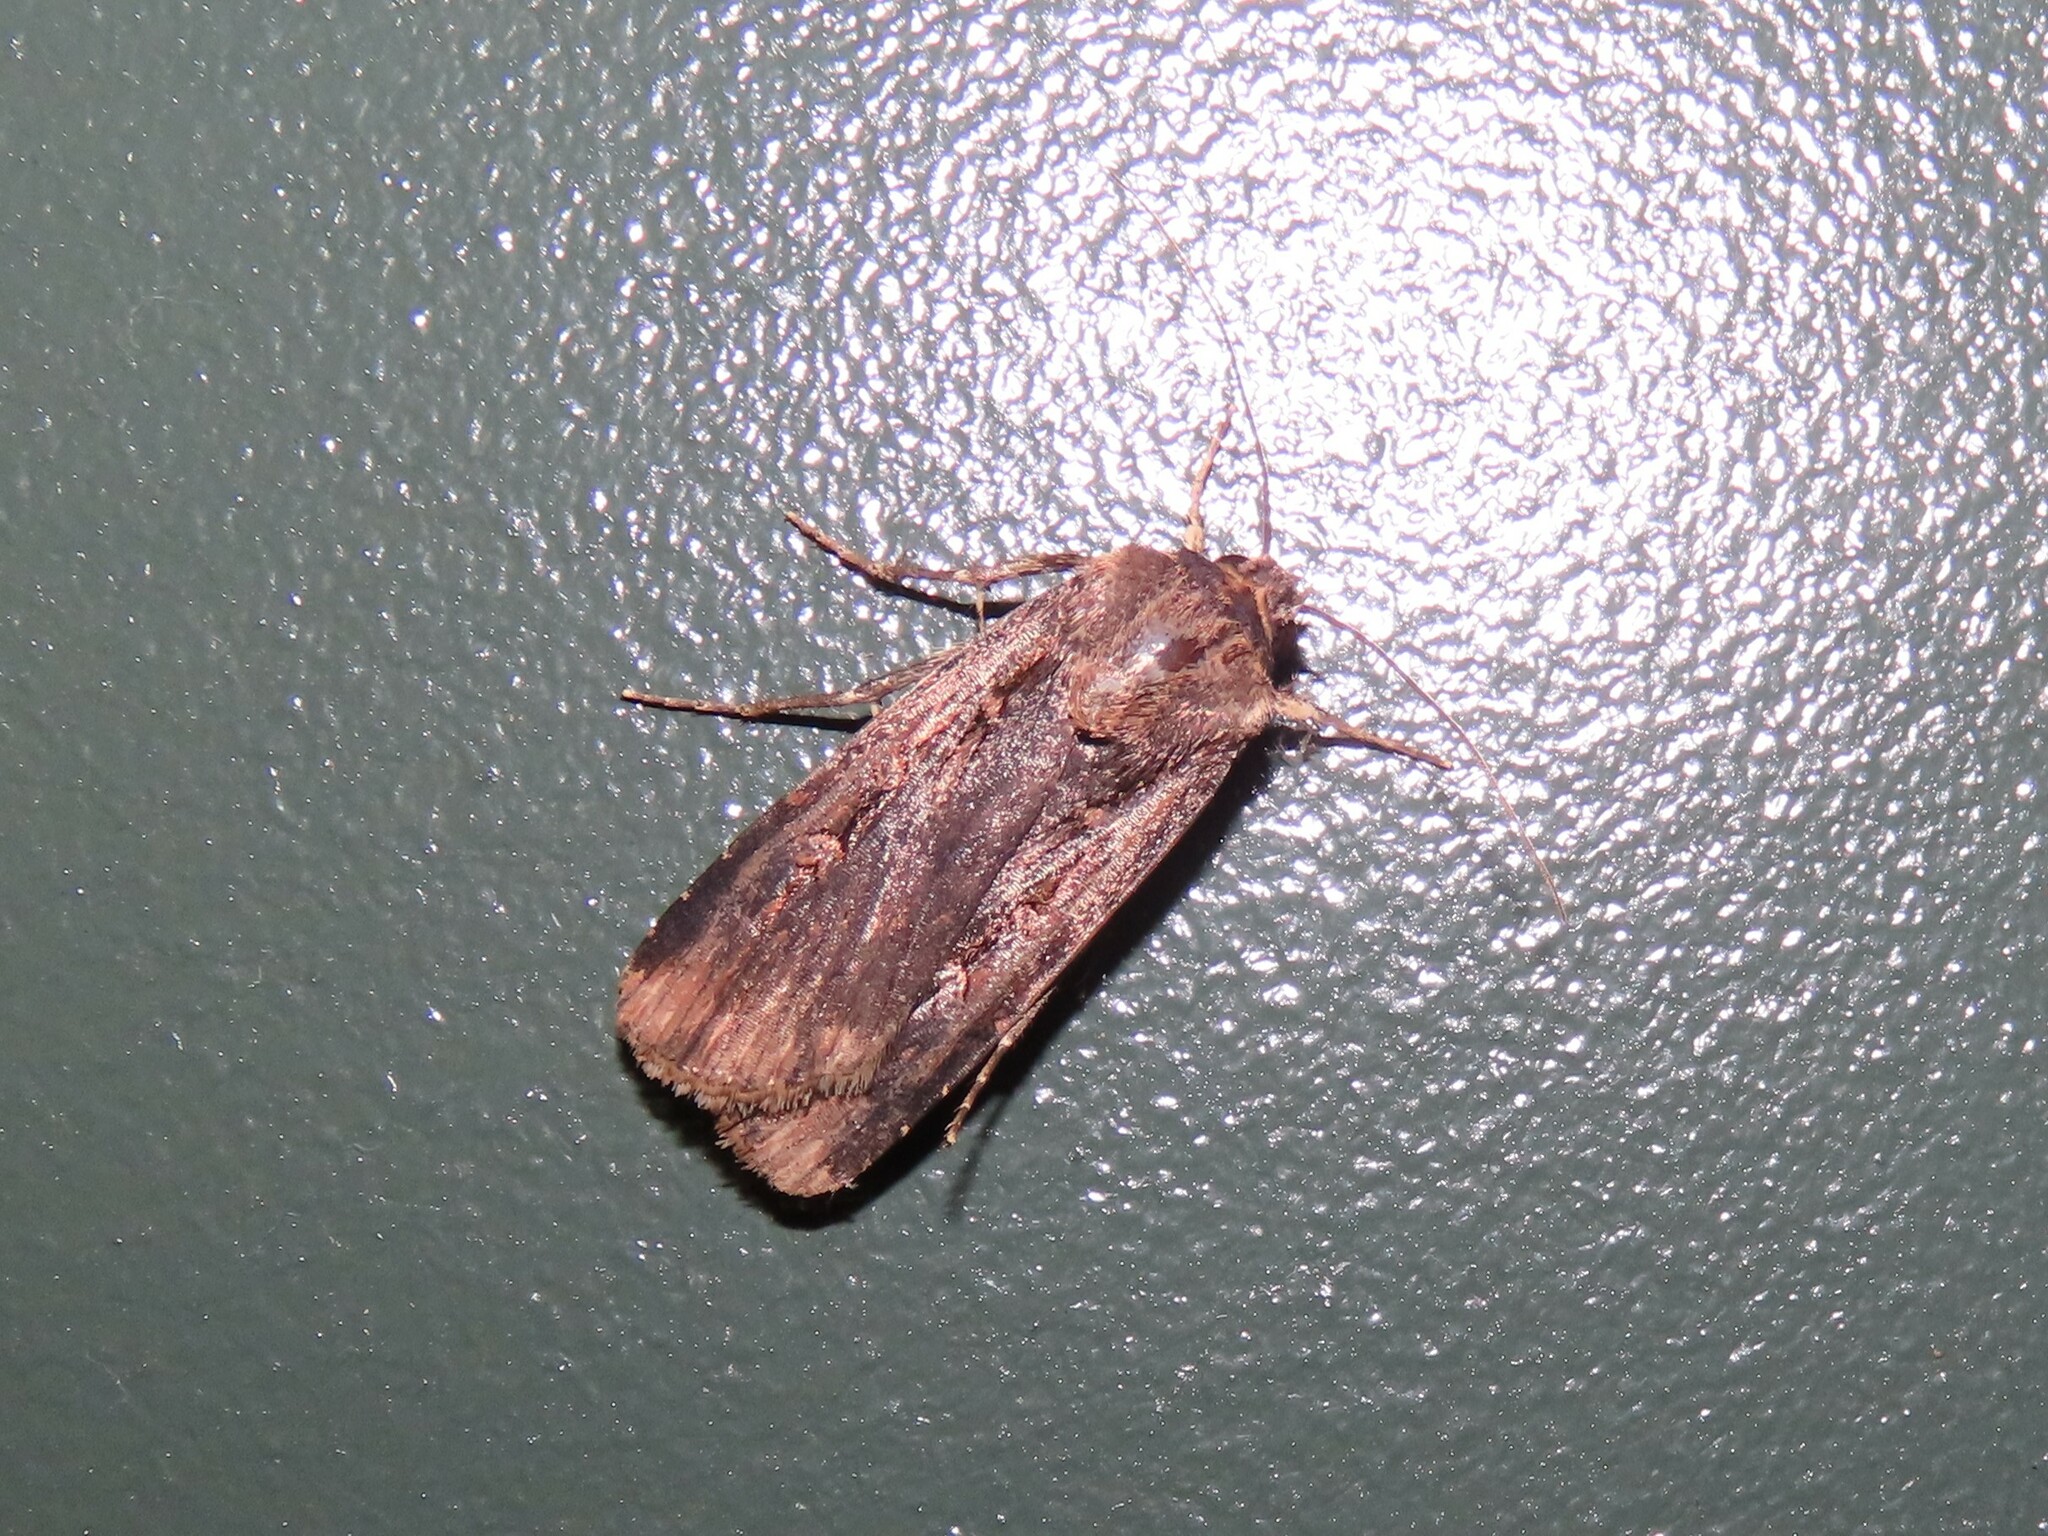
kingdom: Animalia
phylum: Arthropoda
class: Insecta
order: Lepidoptera
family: Noctuidae
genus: Feltia
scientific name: Feltia subterranea
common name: Granulate cutworm
